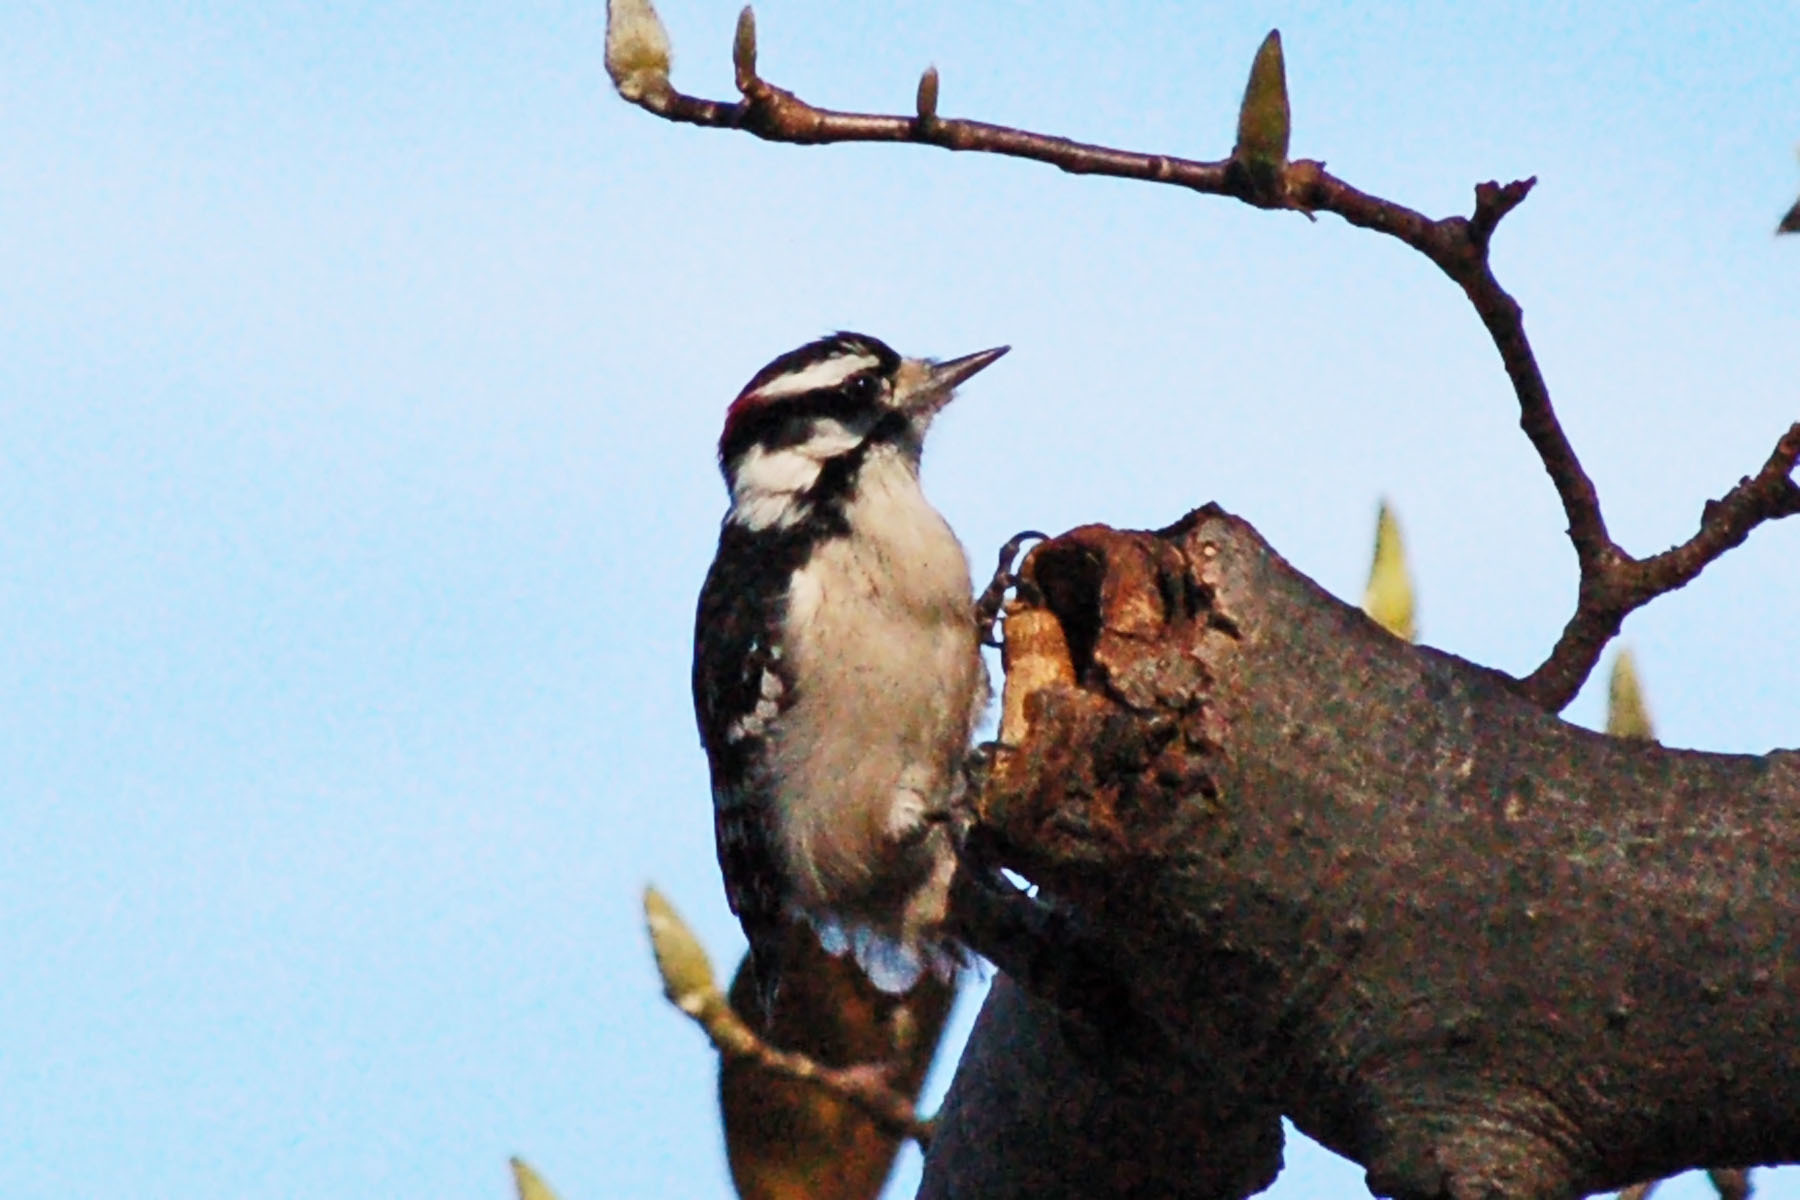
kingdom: Animalia
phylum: Chordata
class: Aves
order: Piciformes
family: Picidae
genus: Dryobates
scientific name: Dryobates pubescens
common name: Downy woodpecker
